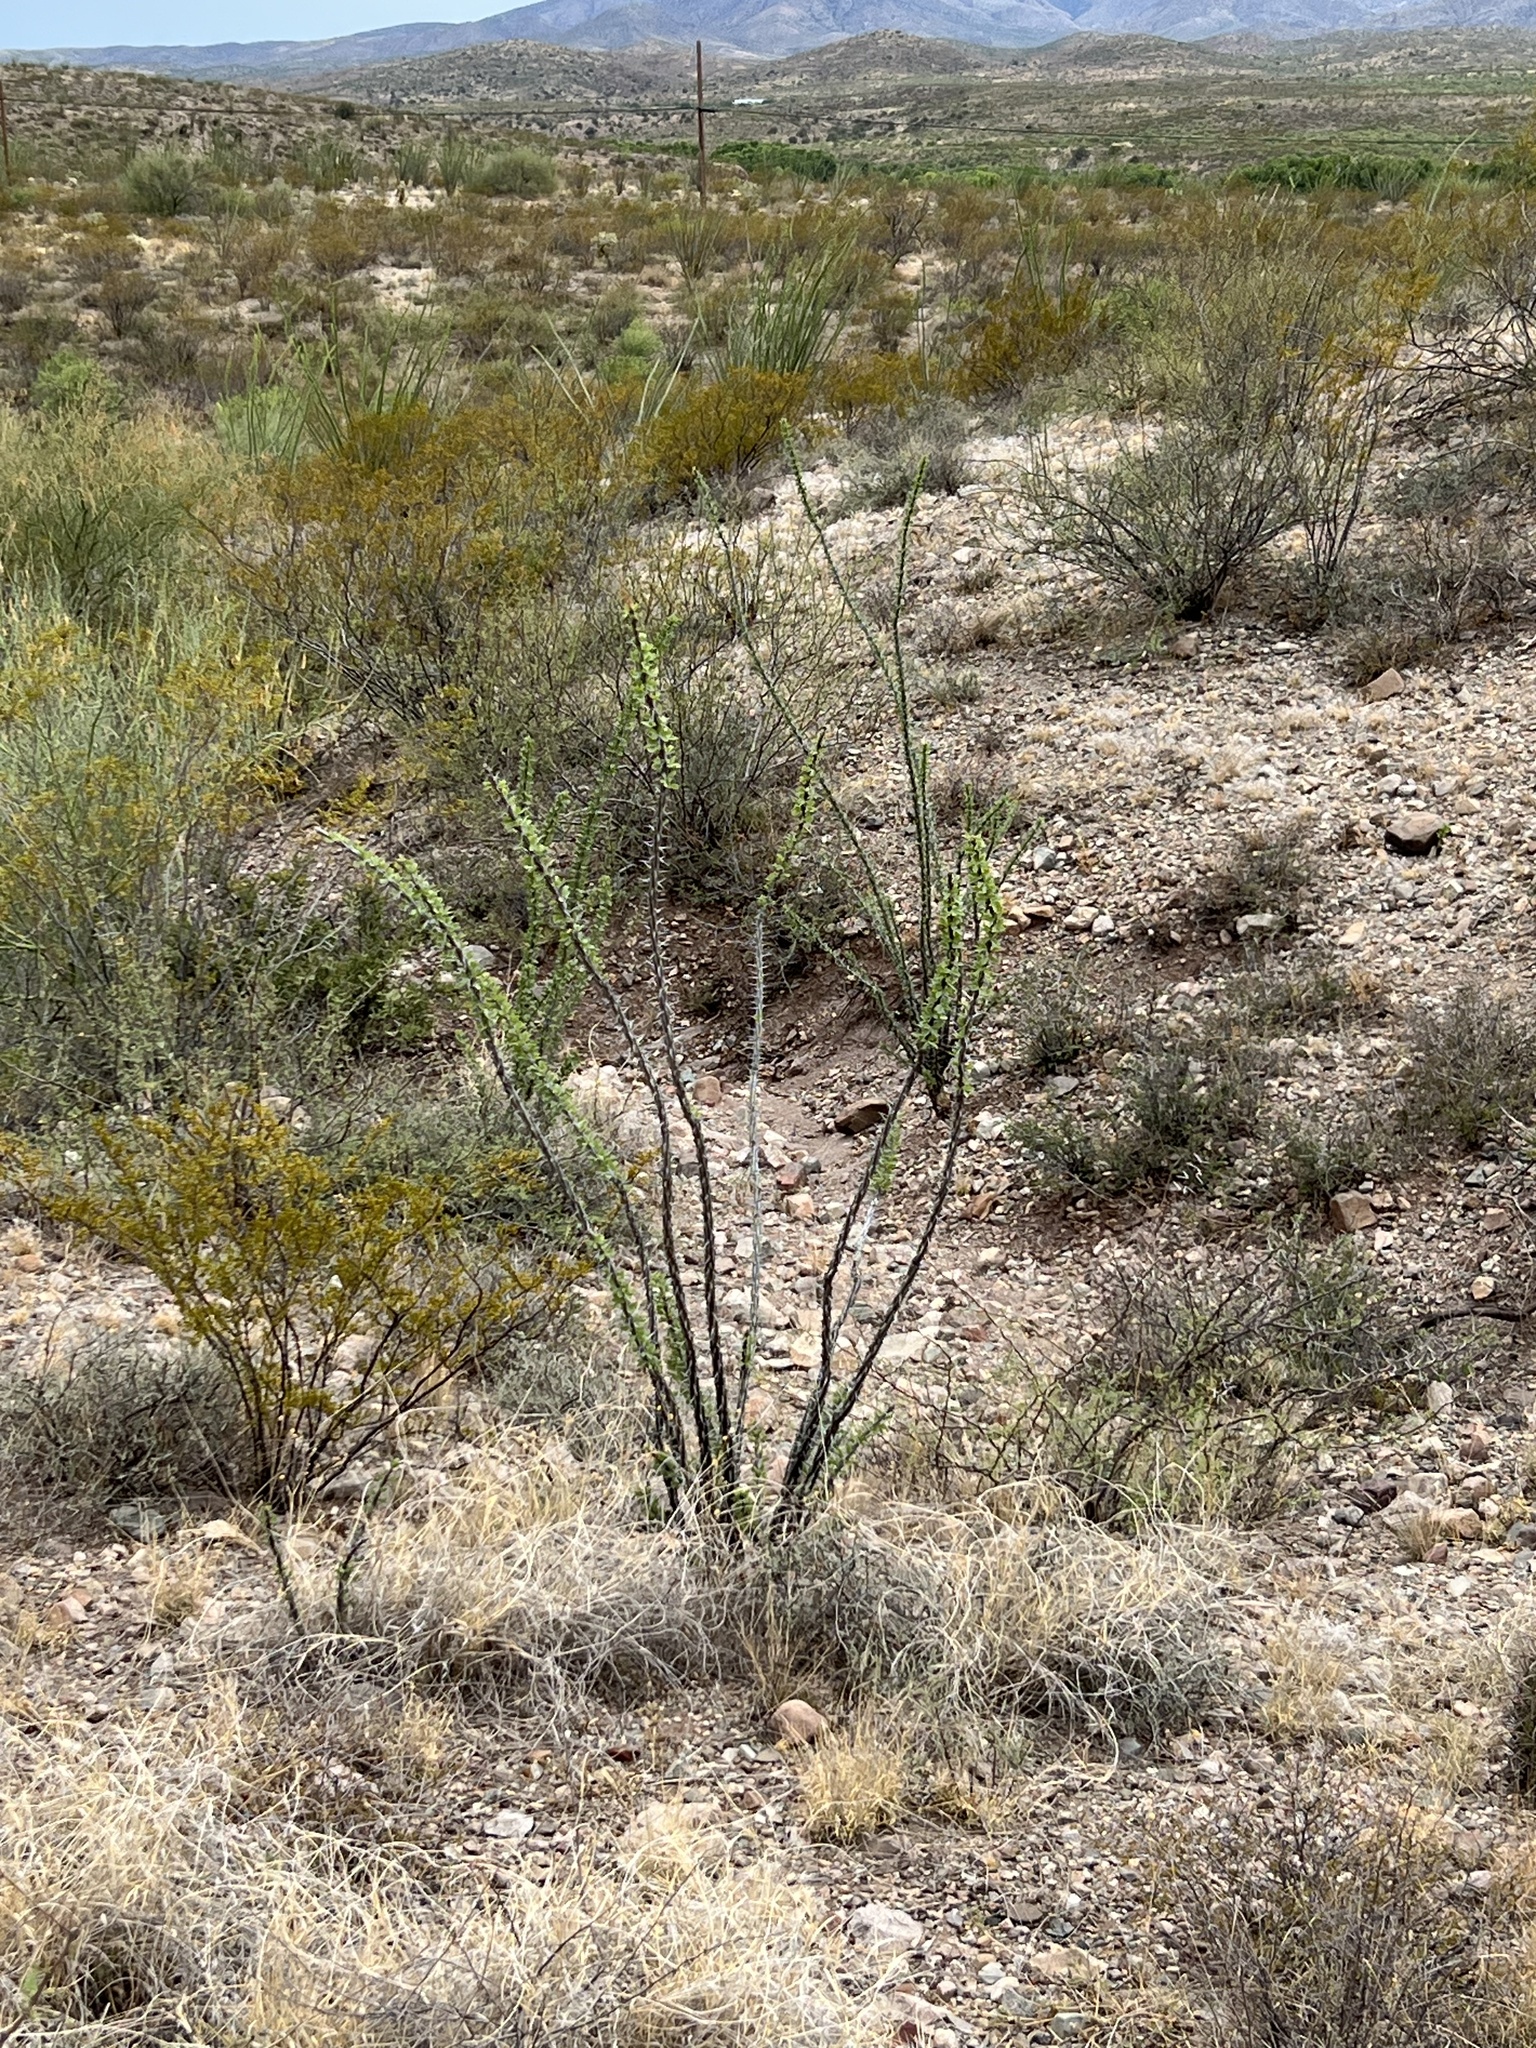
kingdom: Plantae
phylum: Tracheophyta
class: Magnoliopsida
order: Ericales
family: Fouquieriaceae
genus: Fouquieria
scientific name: Fouquieria splendens
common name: Vine-cactus
